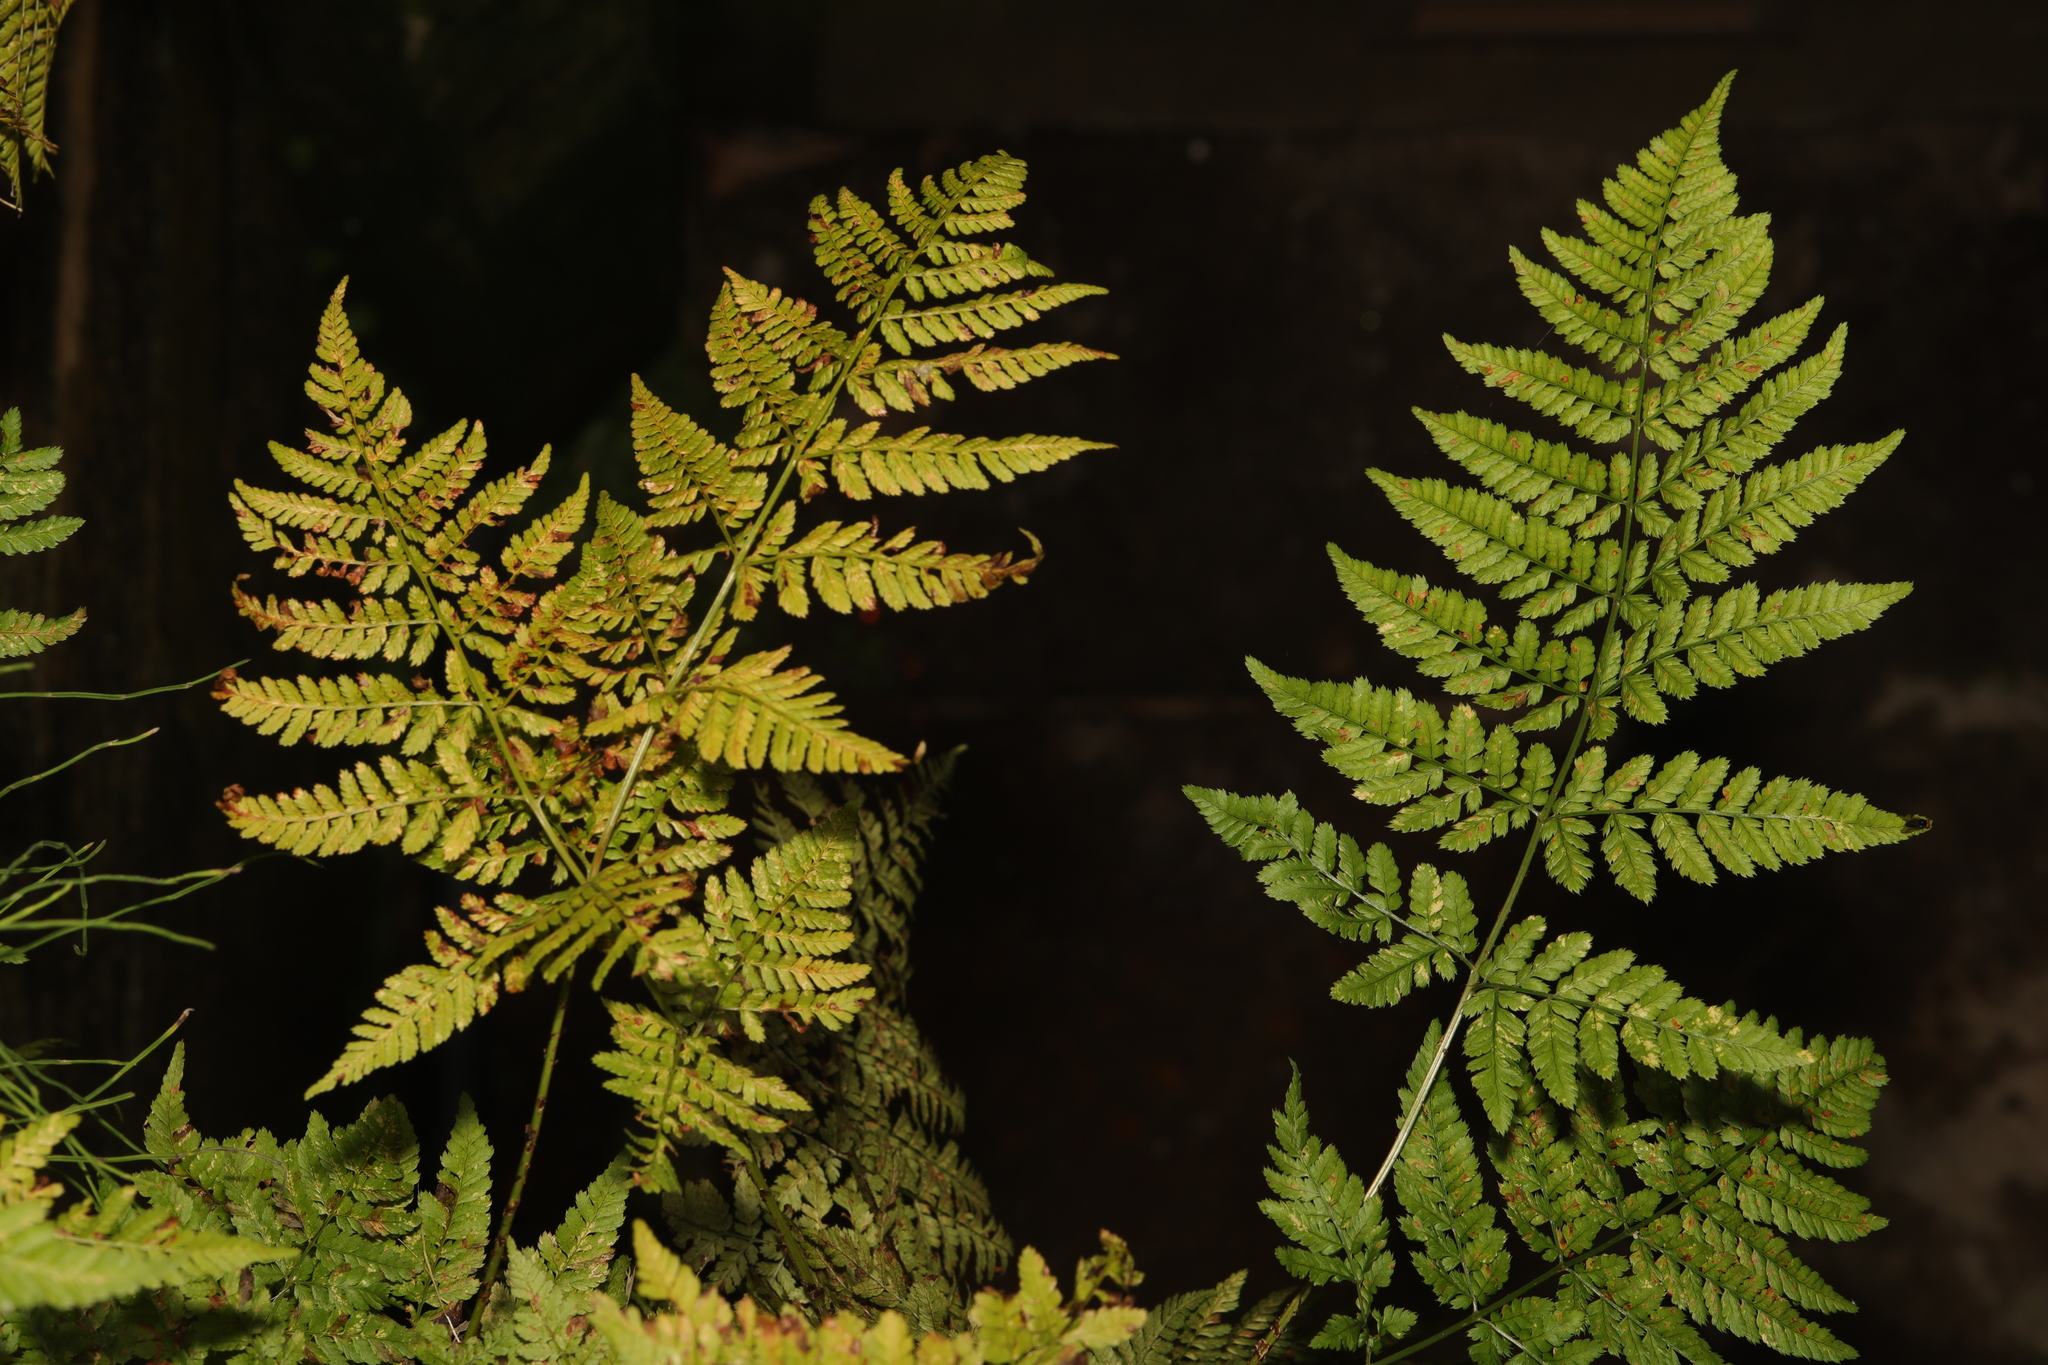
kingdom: Plantae
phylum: Tracheophyta
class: Polypodiopsida
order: Polypodiales
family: Dryopteridaceae
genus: Dryopteris
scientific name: Dryopteris dilatata
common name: Broad buckler-fern
